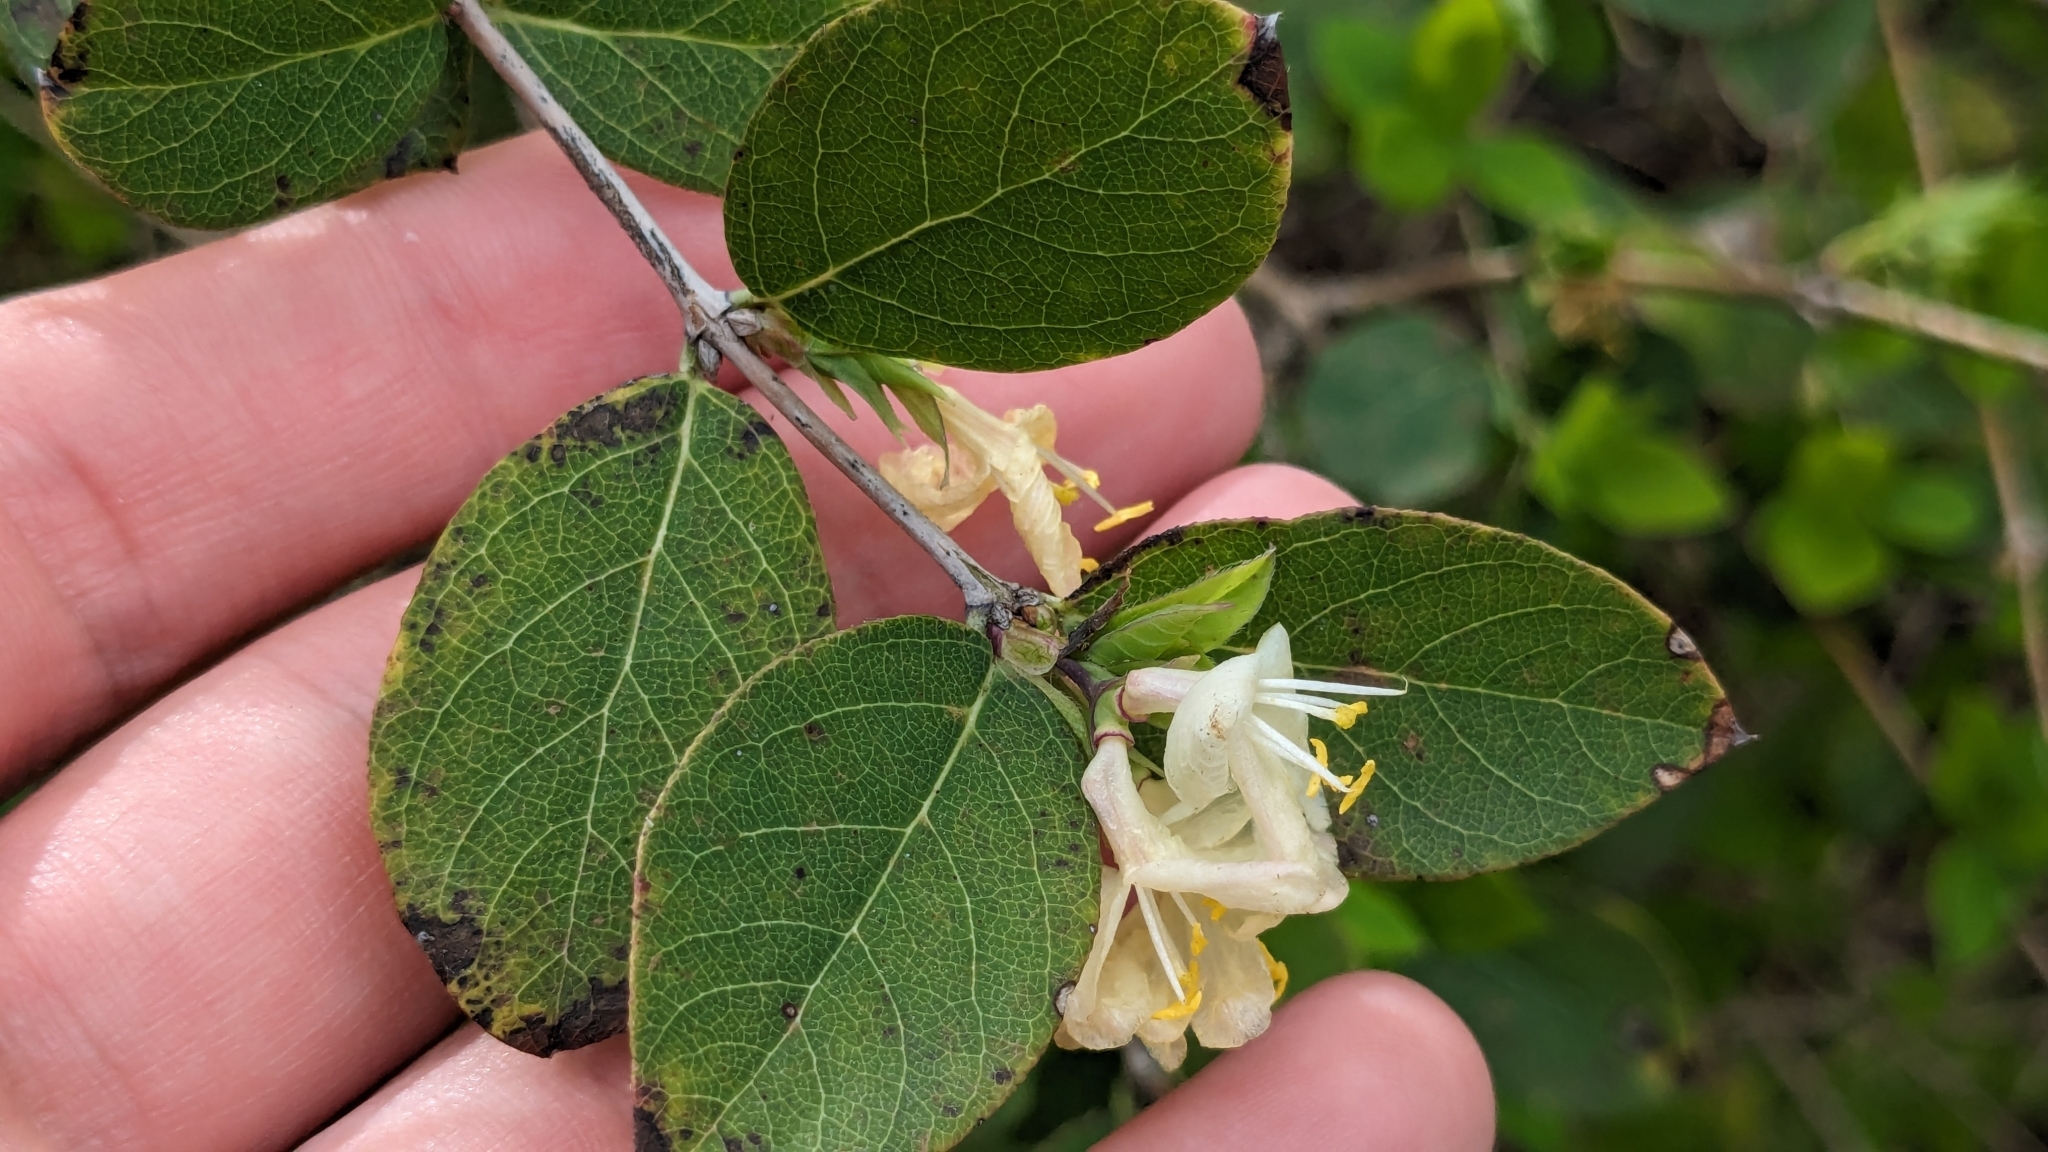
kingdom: Plantae
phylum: Tracheophyta
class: Magnoliopsida
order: Dipsacales
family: Caprifoliaceae
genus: Lonicera
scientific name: Lonicera fragrantissima
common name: Fragrant honeysuckle
